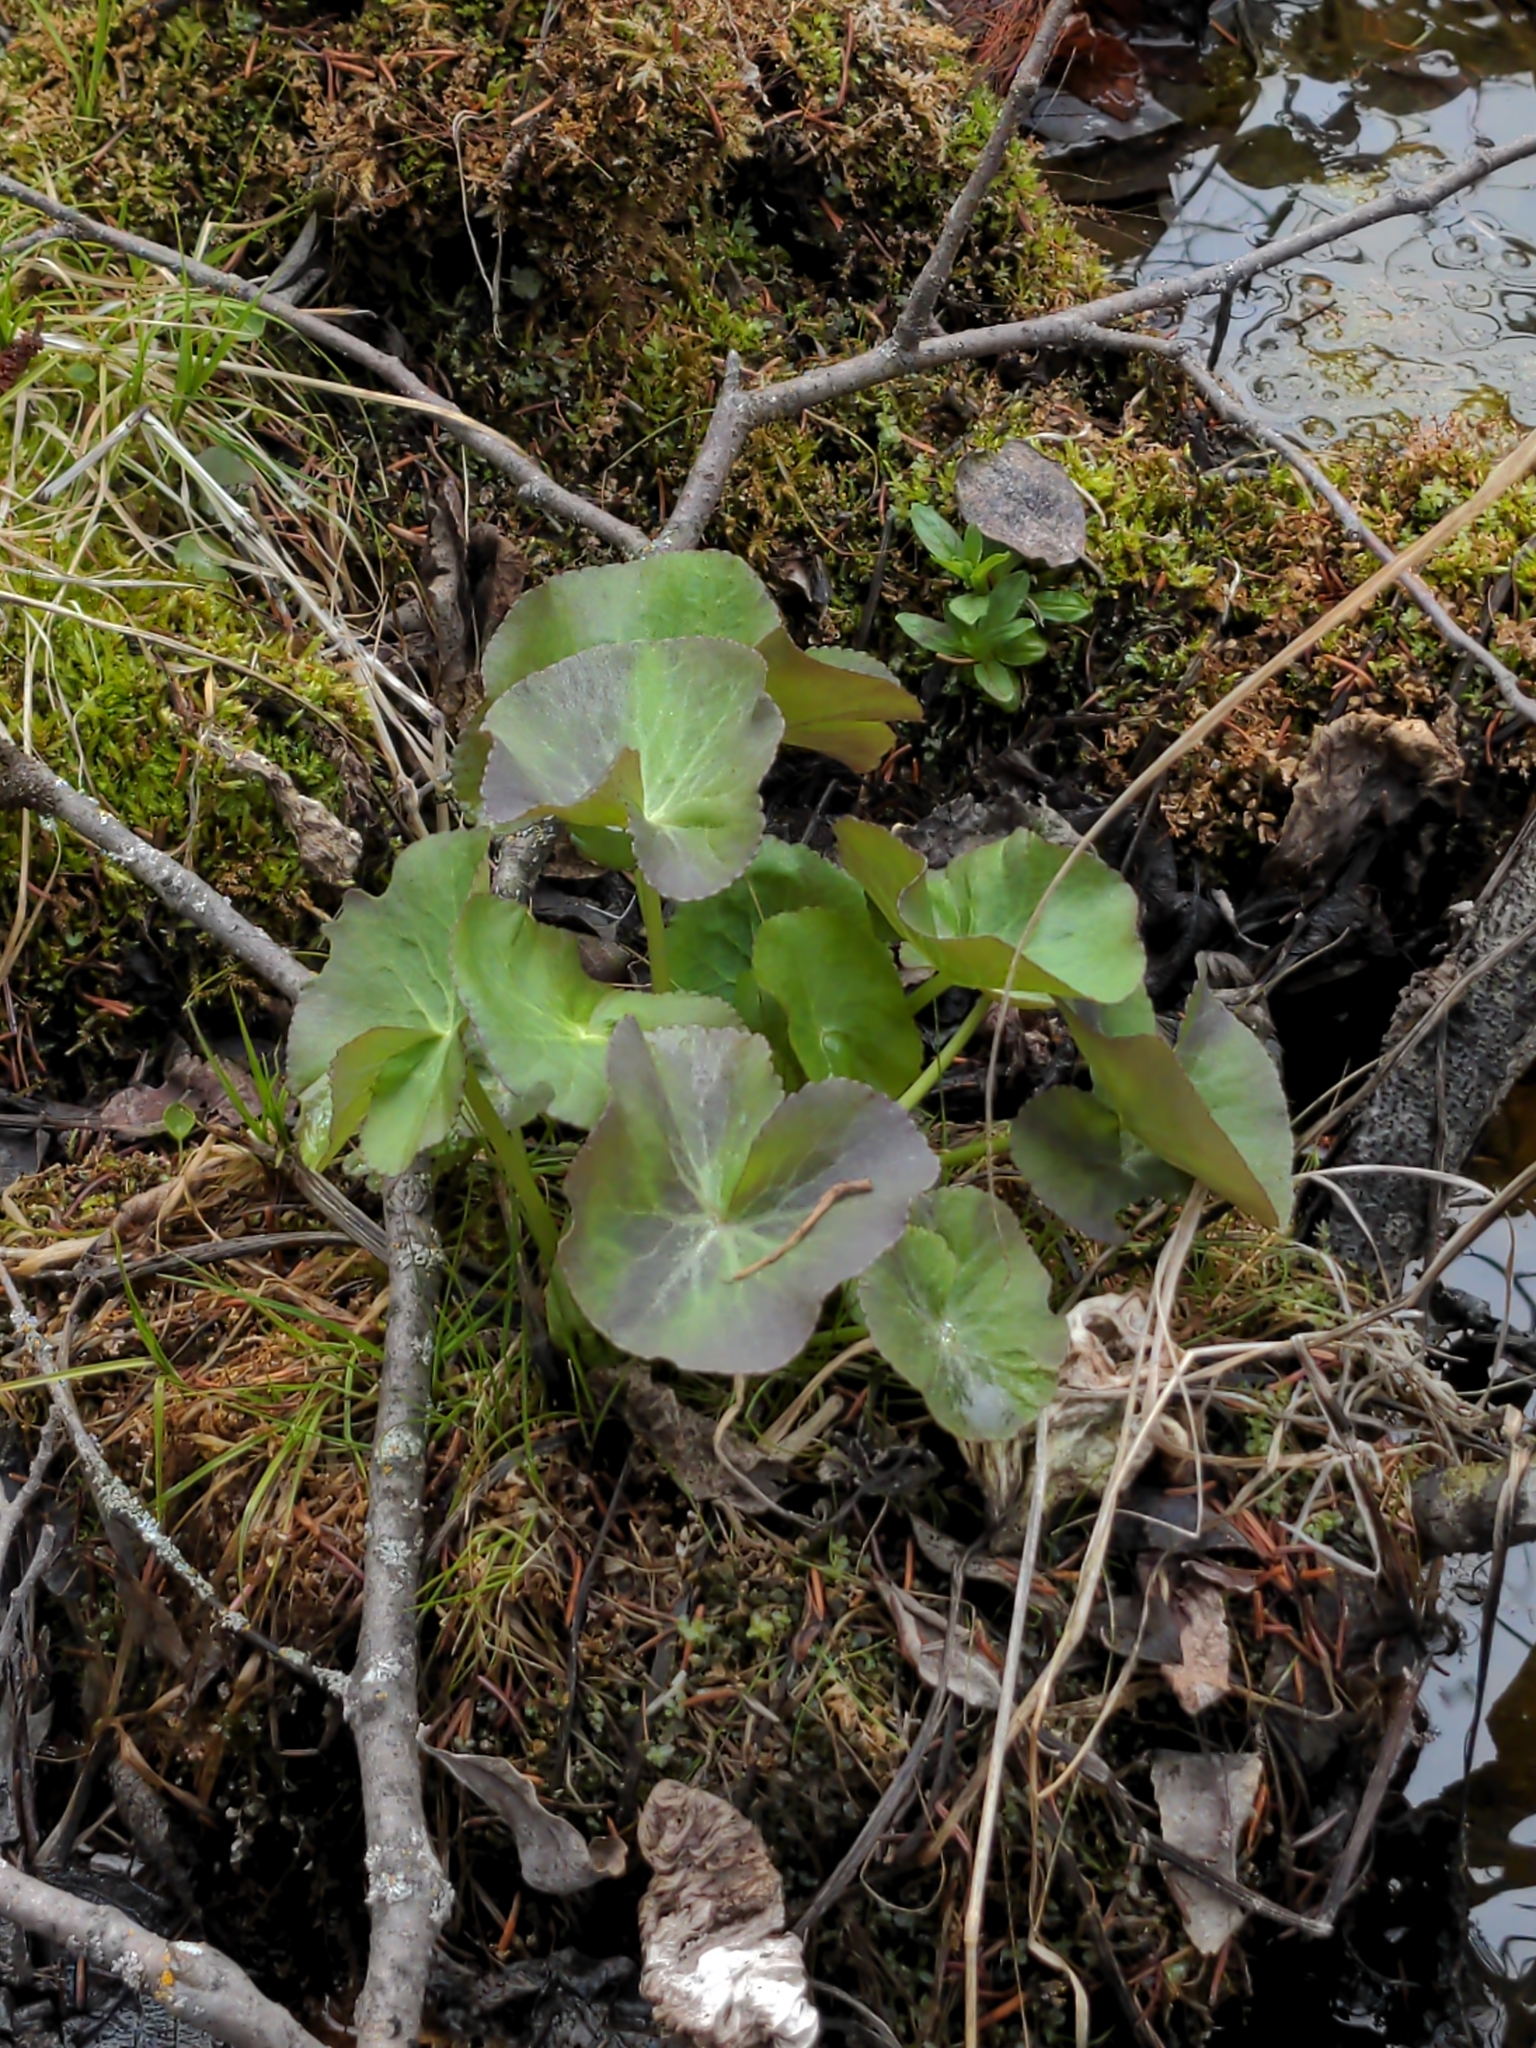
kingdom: Plantae
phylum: Tracheophyta
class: Magnoliopsida
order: Ranunculales
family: Ranunculaceae
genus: Caltha
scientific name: Caltha palustris
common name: Marsh marigold
